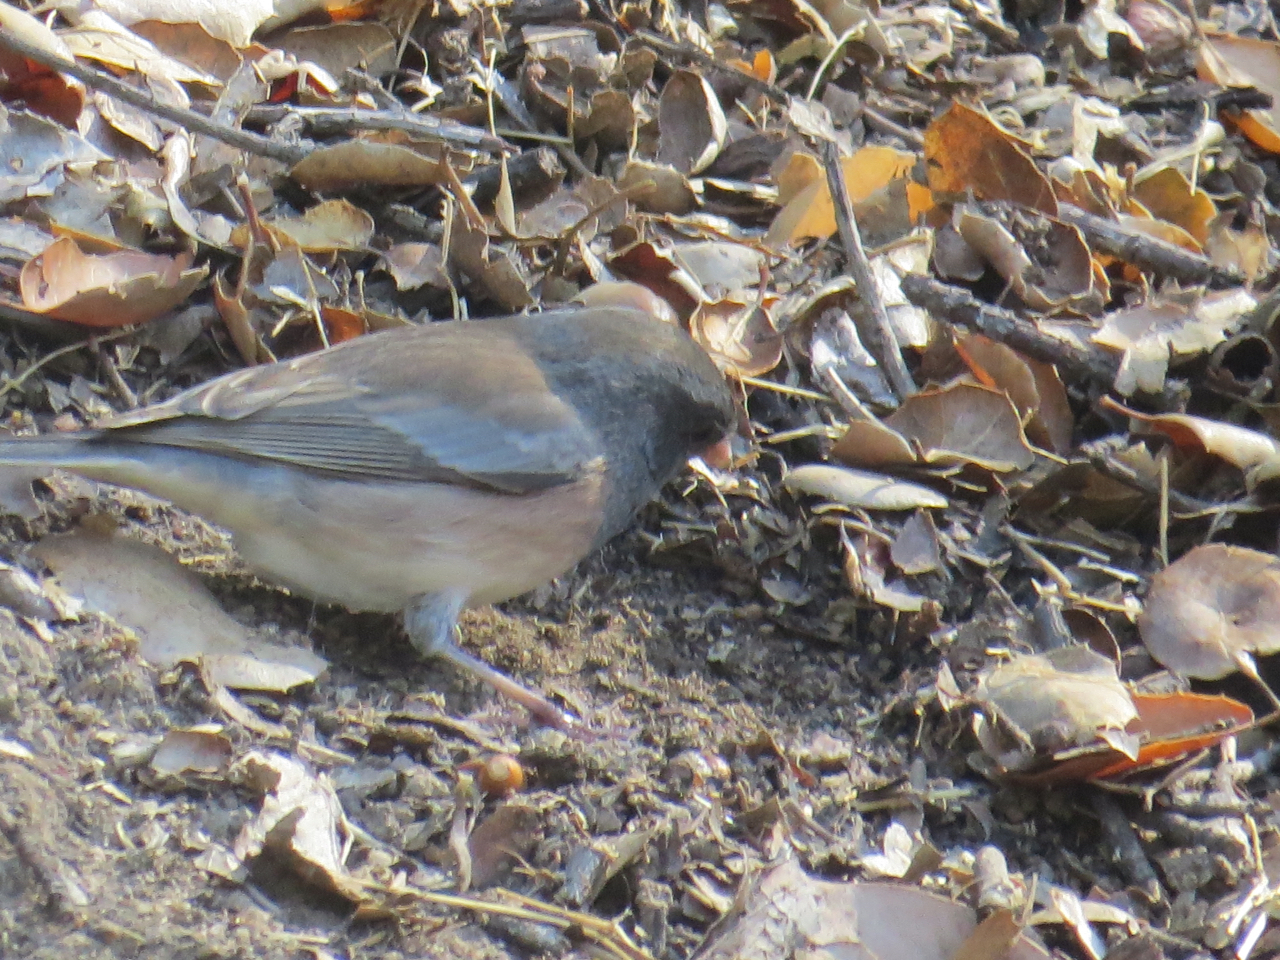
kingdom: Animalia
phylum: Chordata
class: Aves
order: Passeriformes
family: Passerellidae
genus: Junco
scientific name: Junco hyemalis
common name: Dark-eyed junco
